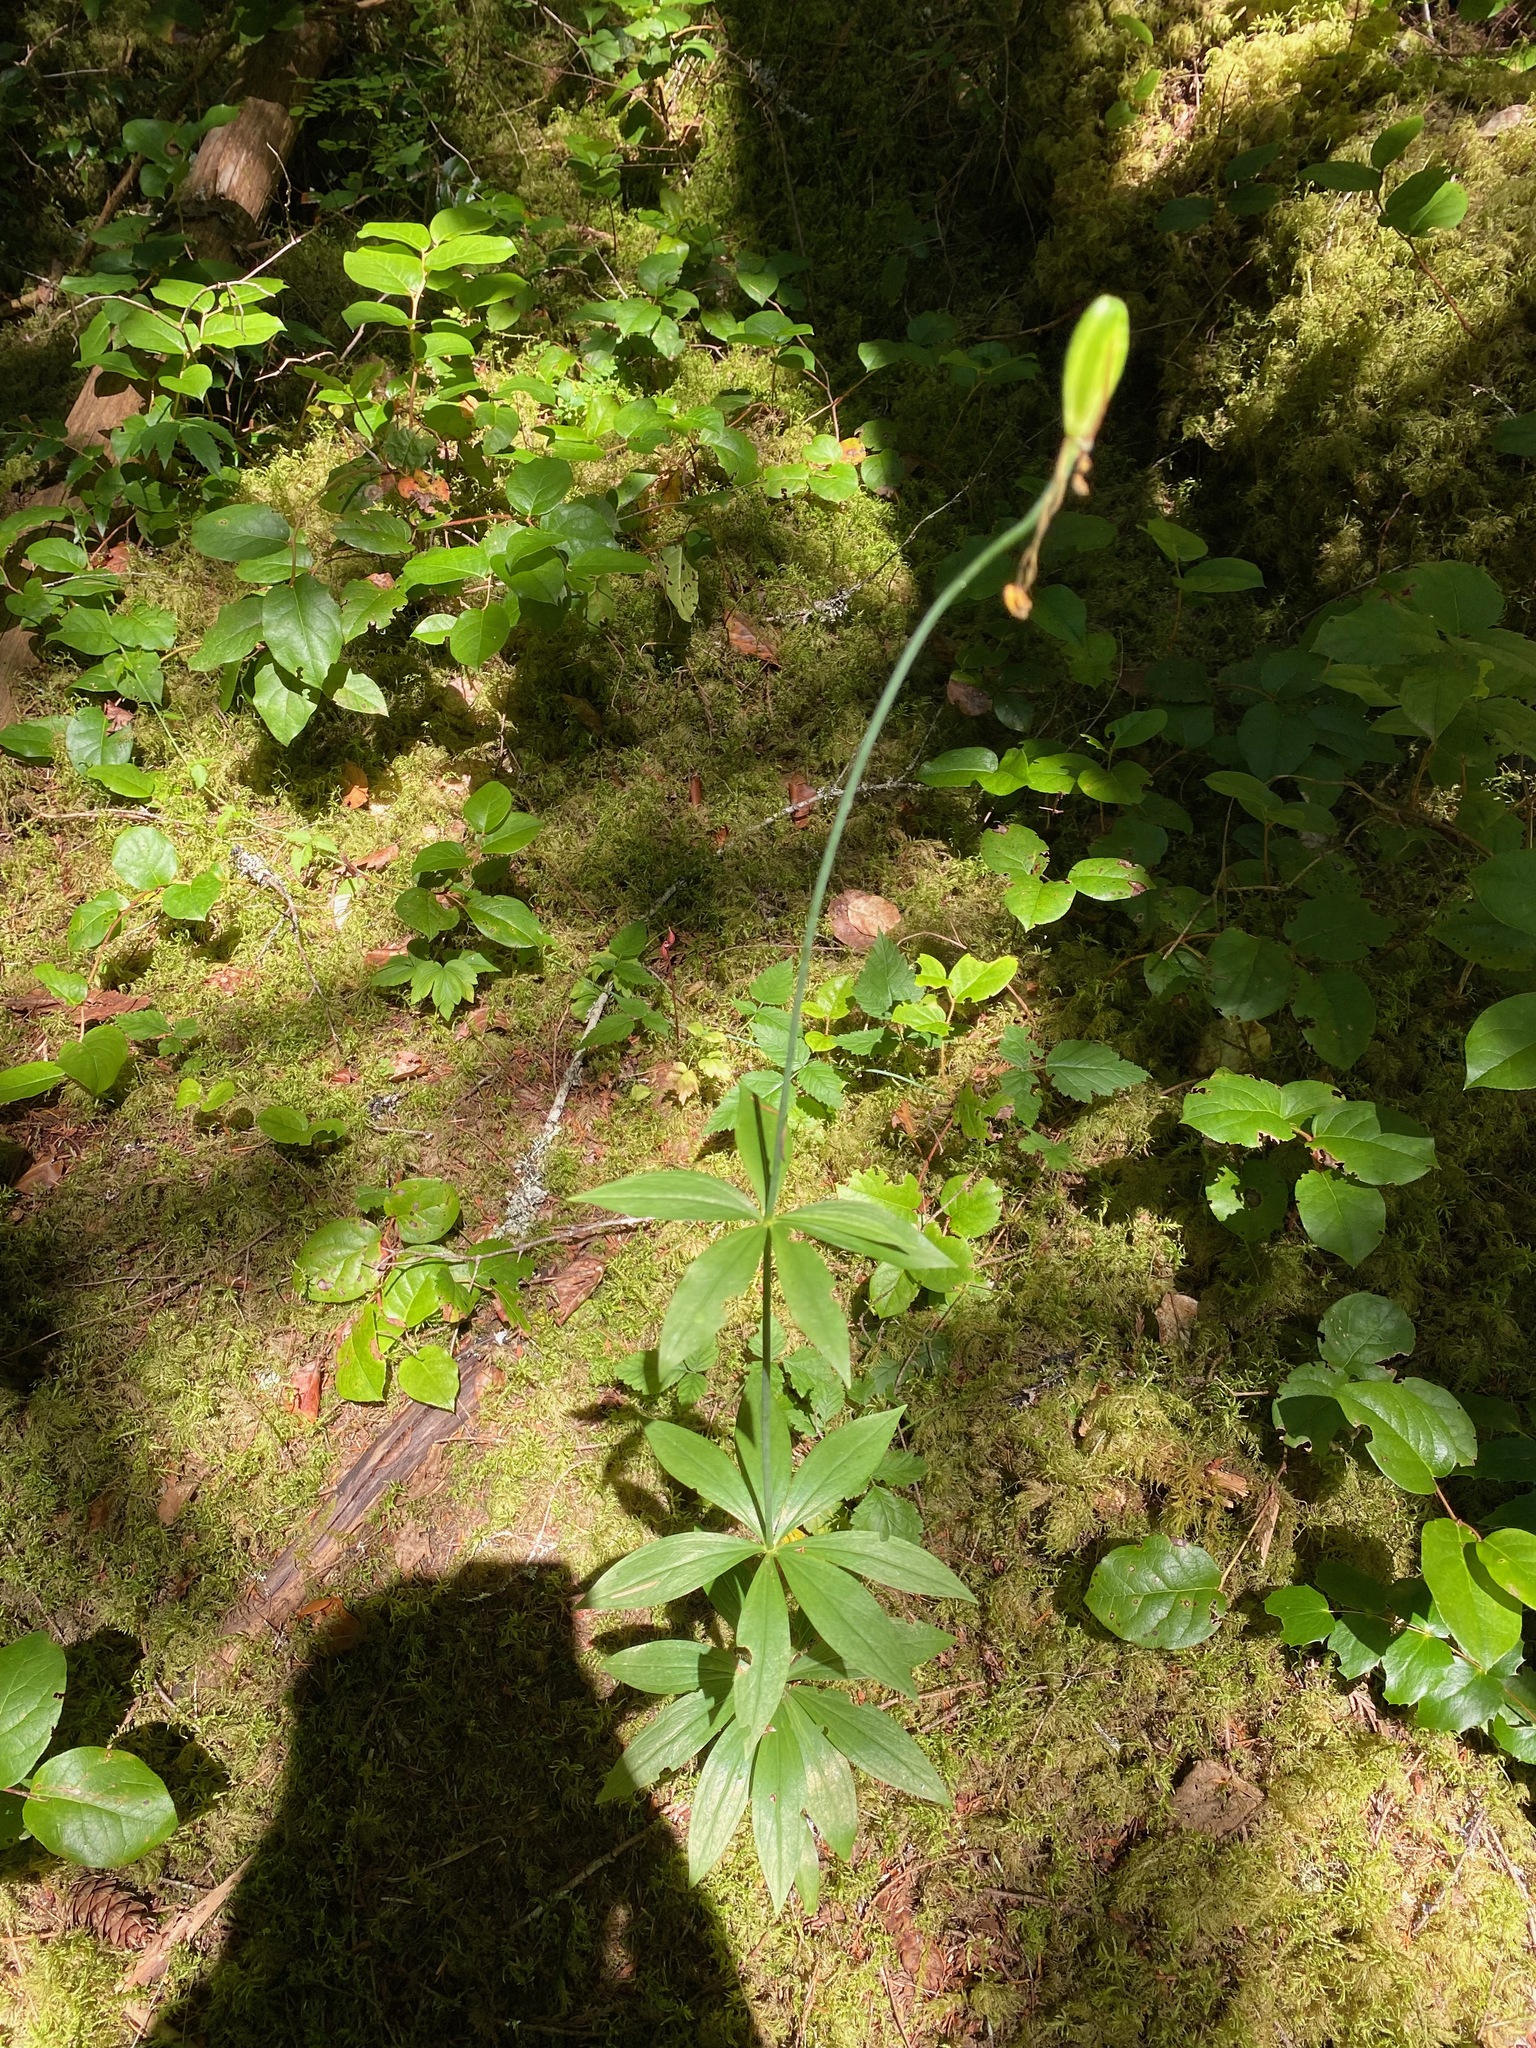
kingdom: Plantae
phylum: Tracheophyta
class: Liliopsida
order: Liliales
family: Liliaceae
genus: Lilium
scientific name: Lilium columbianum
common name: Columbia lily
